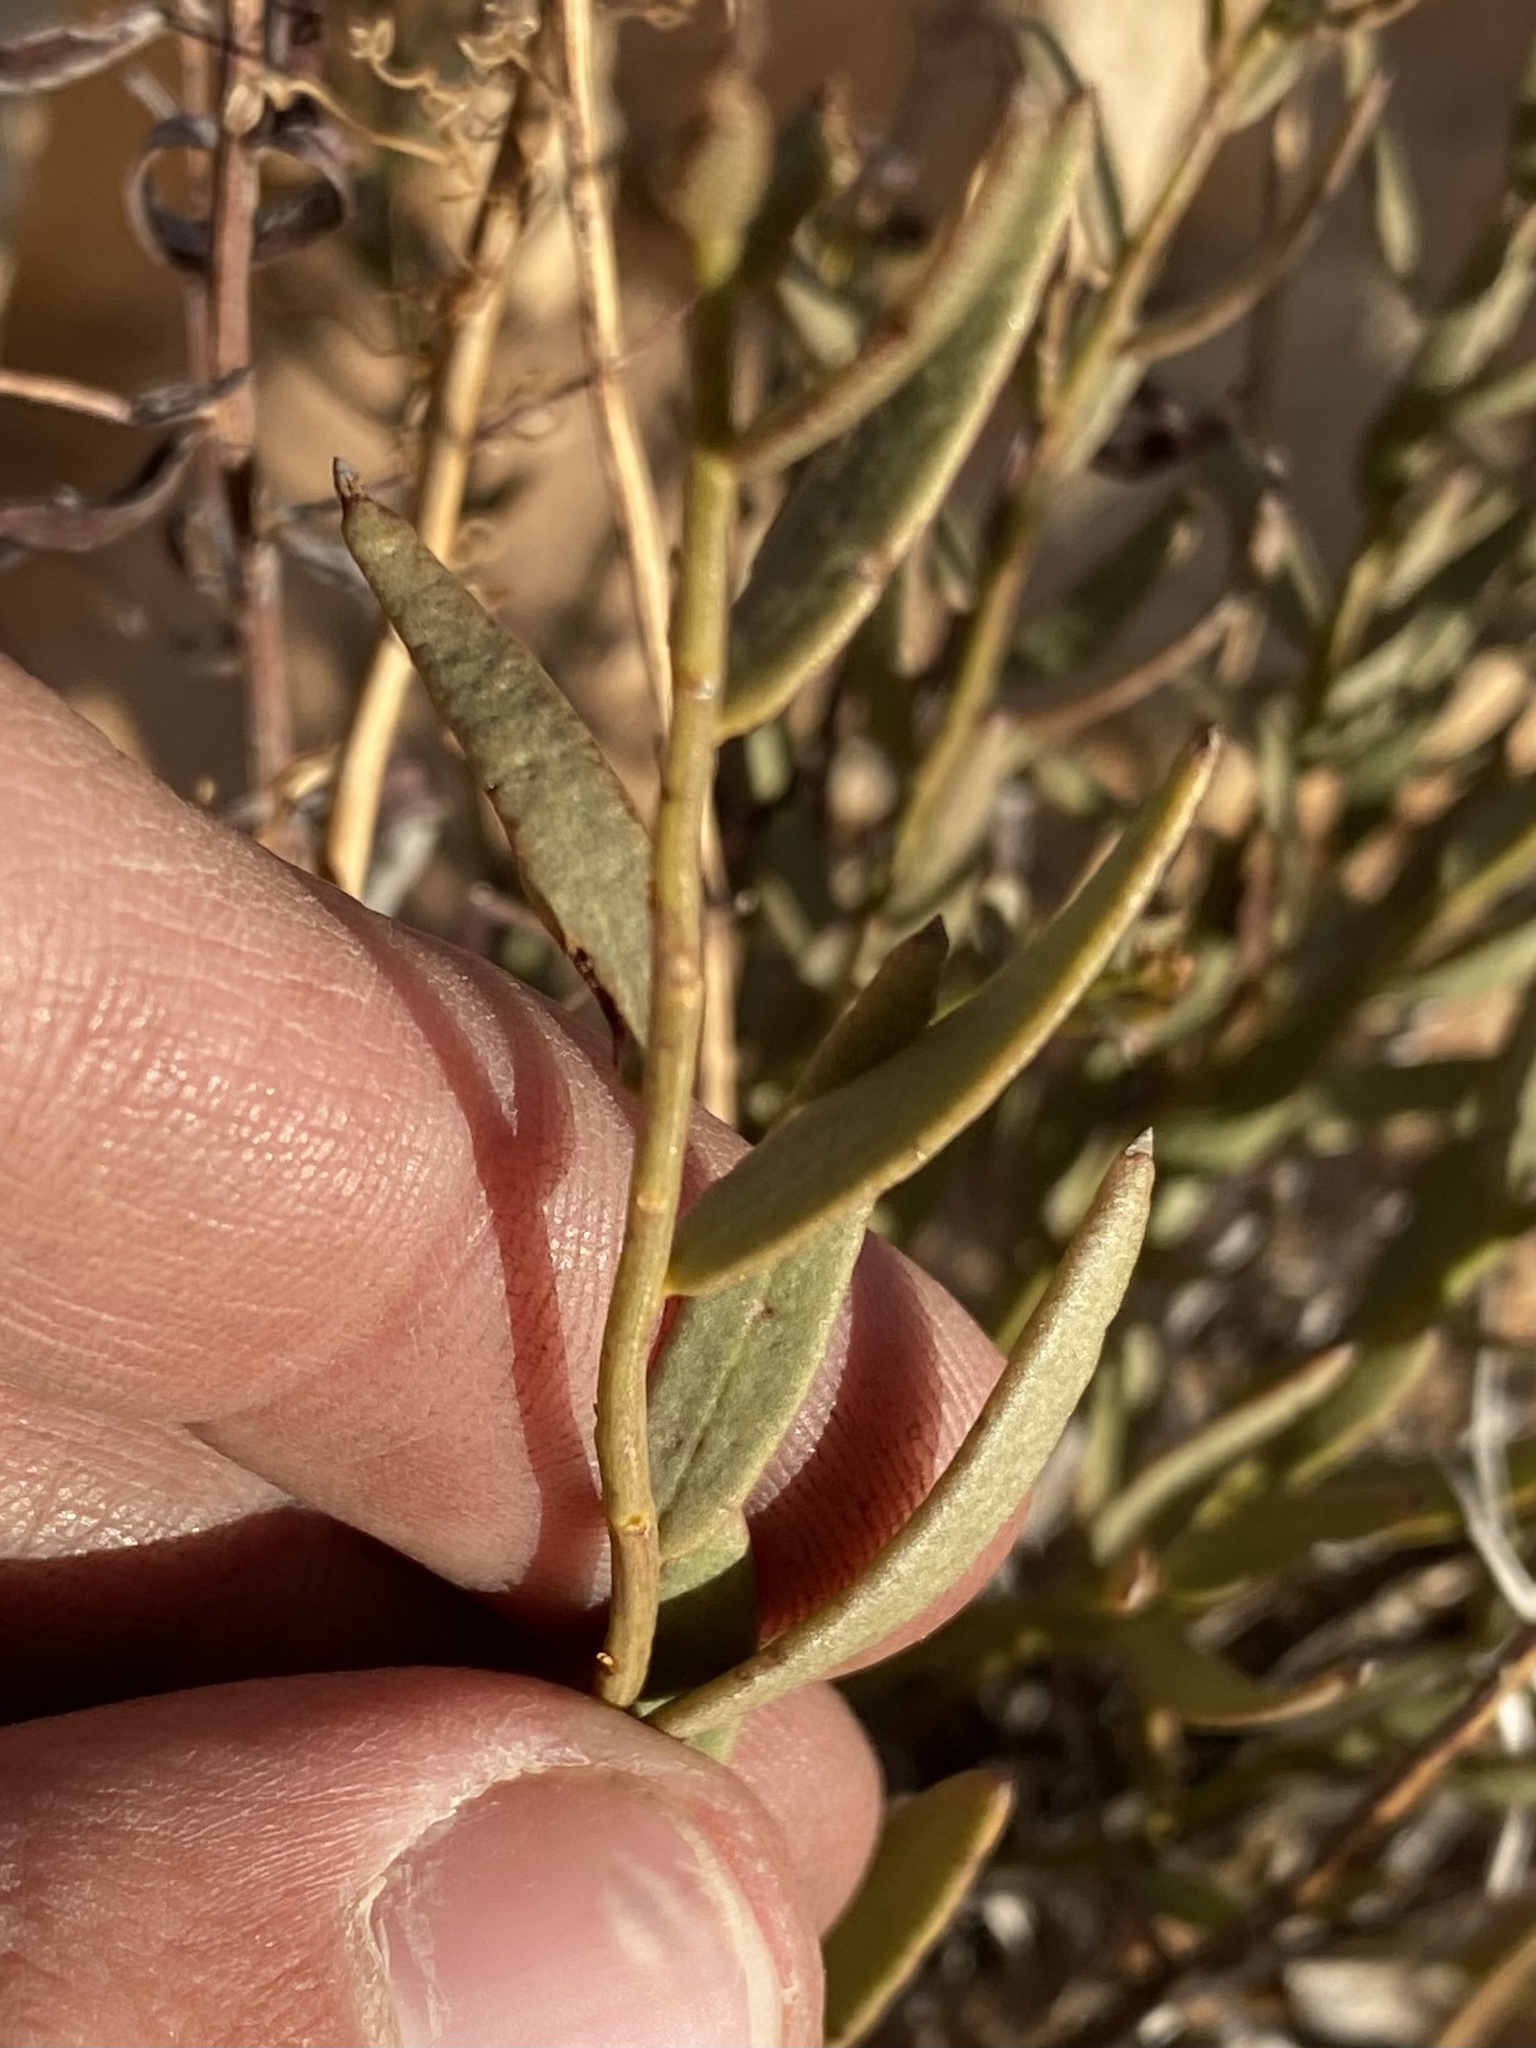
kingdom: Plantae
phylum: Tracheophyta
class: Magnoliopsida
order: Fabales
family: Polygalaceae
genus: Rhinotropis
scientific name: Rhinotropis subspinosa
